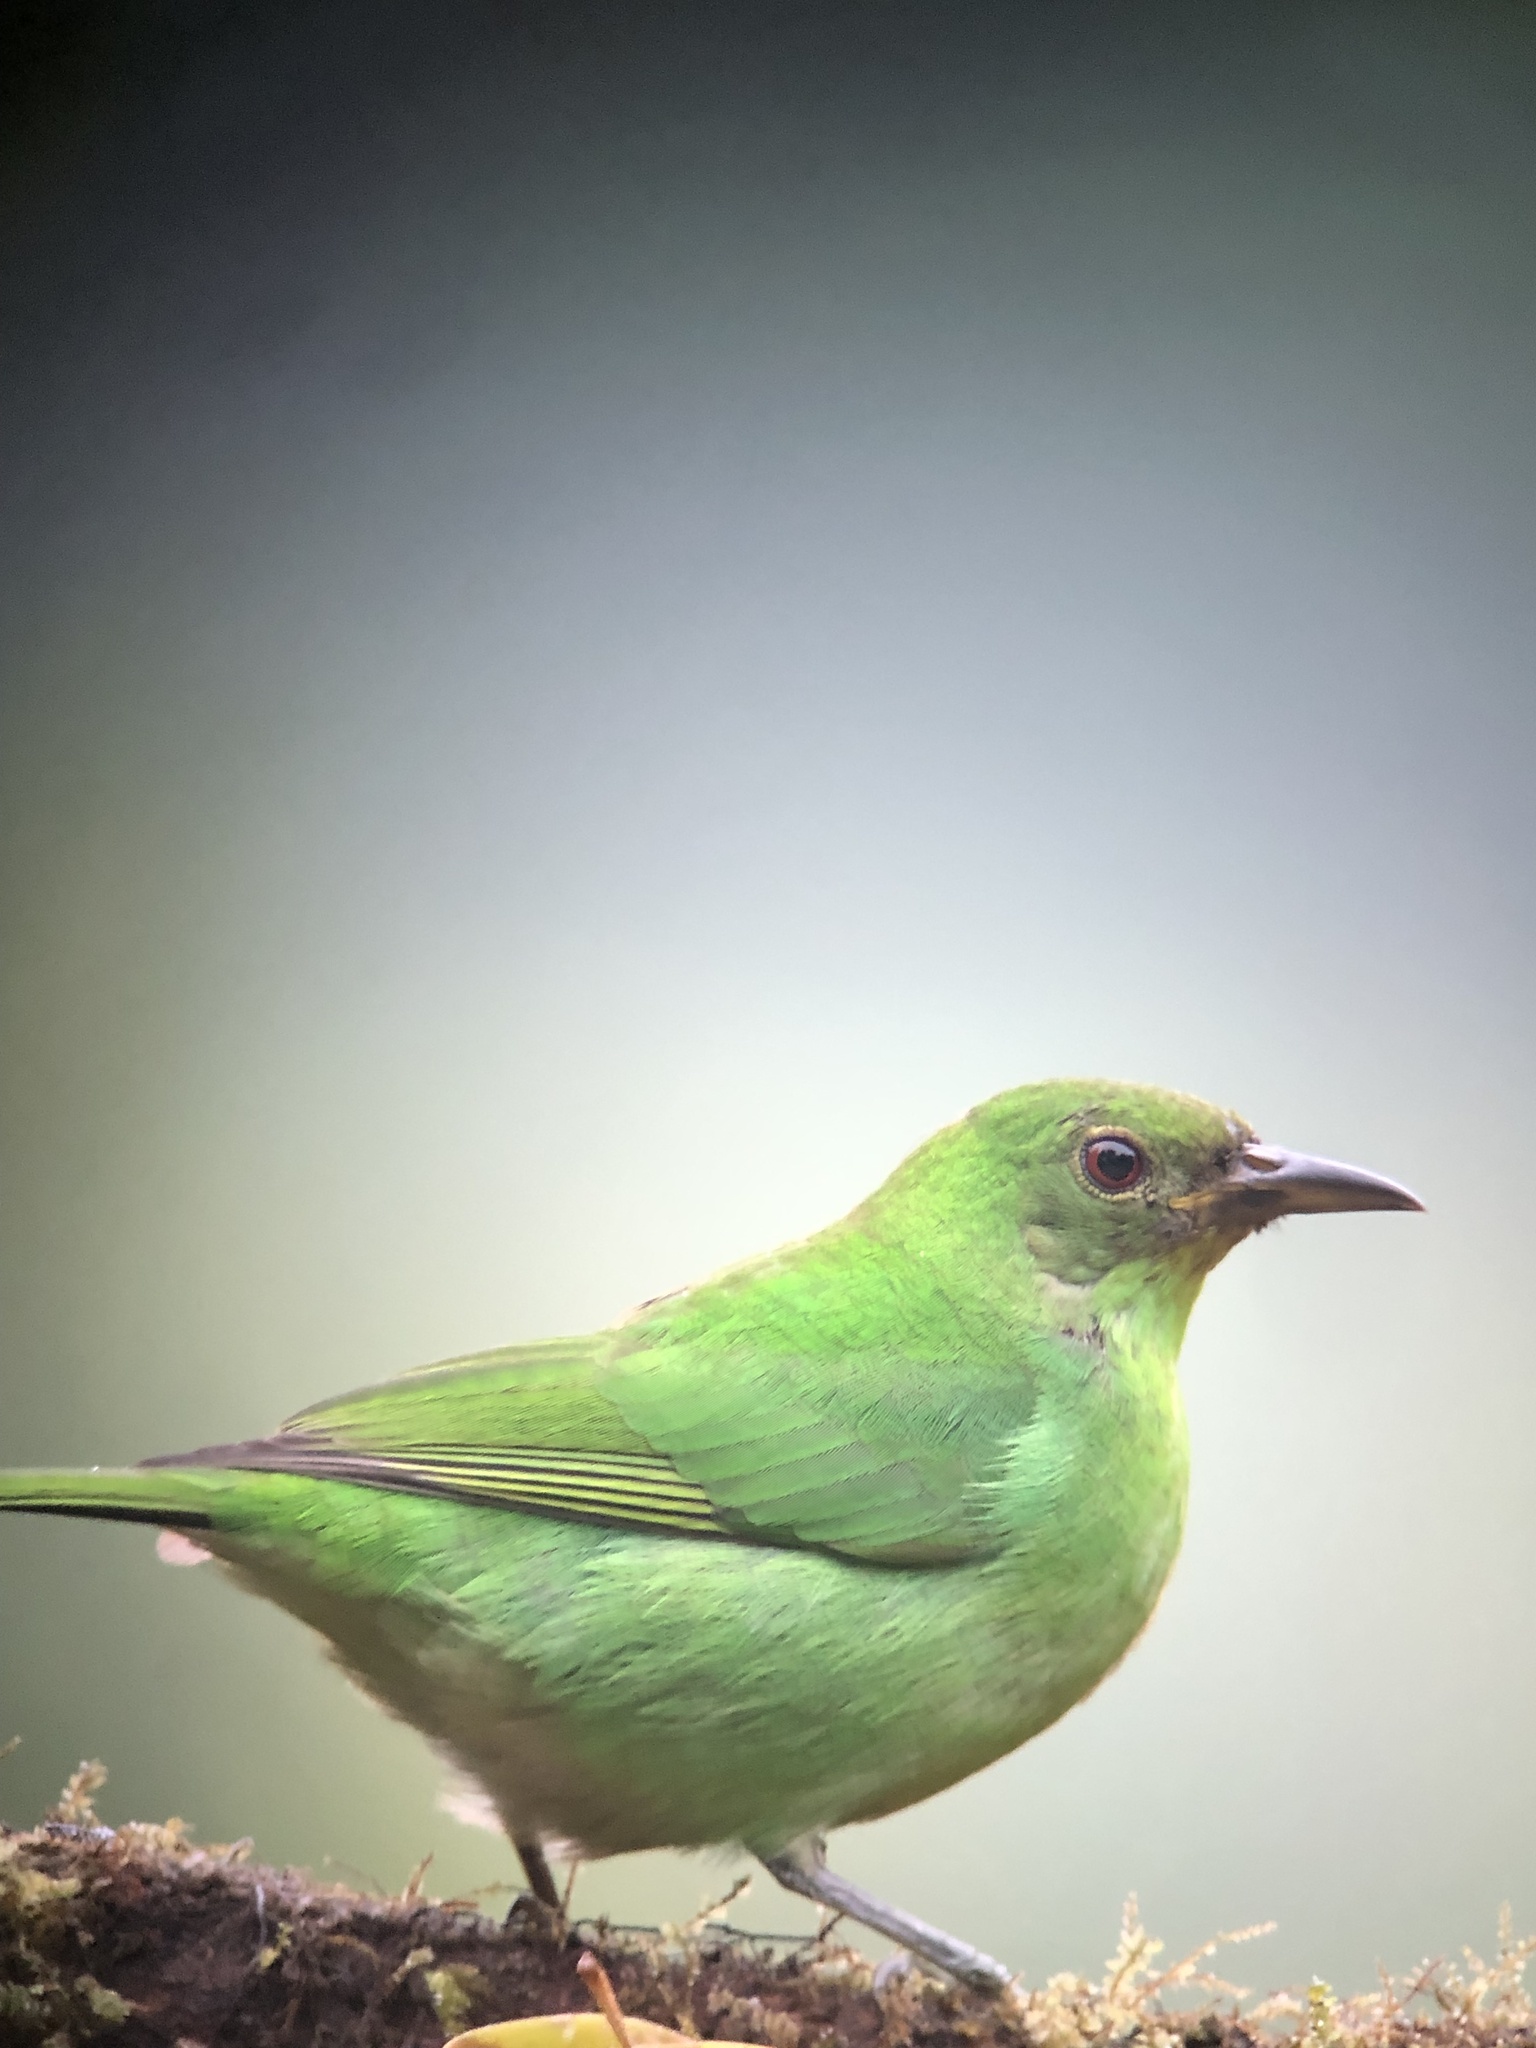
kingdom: Animalia
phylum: Chordata
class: Aves
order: Passeriformes
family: Thraupidae
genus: Chlorophanes
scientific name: Chlorophanes spiza
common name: Green honeycreeper
